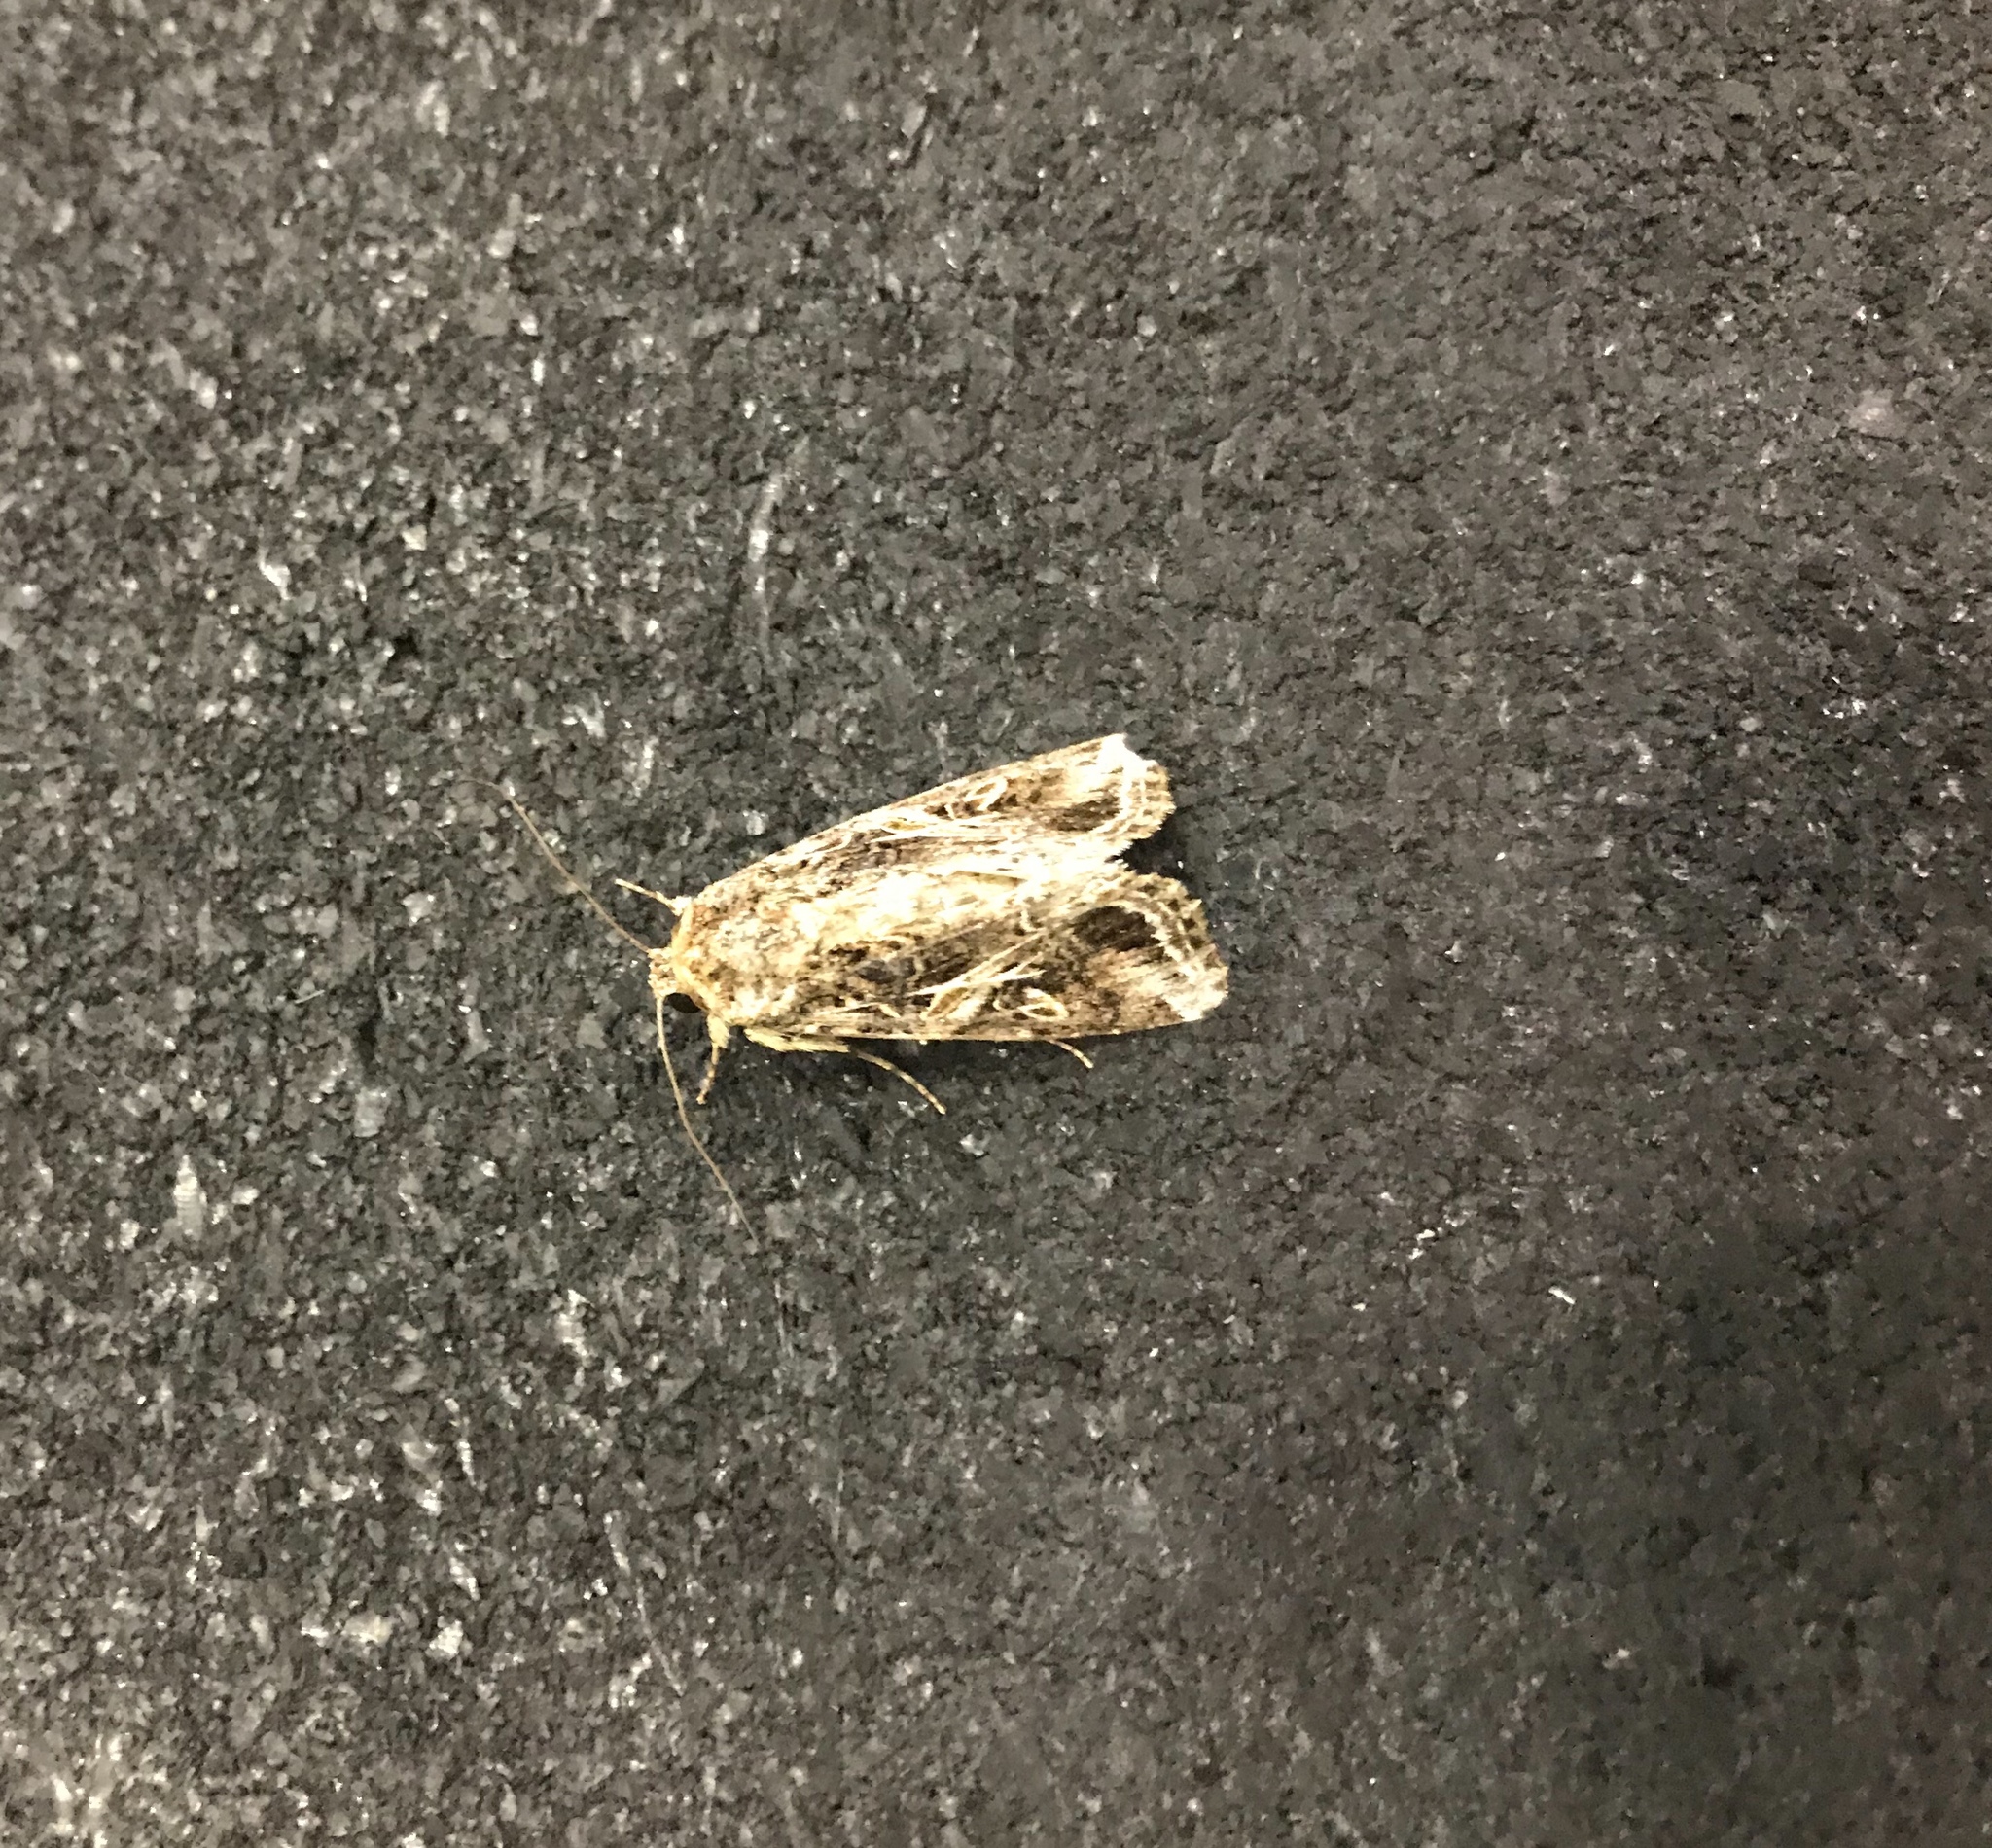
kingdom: Animalia
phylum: Arthropoda
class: Insecta
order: Lepidoptera
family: Noctuidae
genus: Spodoptera
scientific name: Spodoptera ornithogalli
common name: Yellow-striped armyworm
